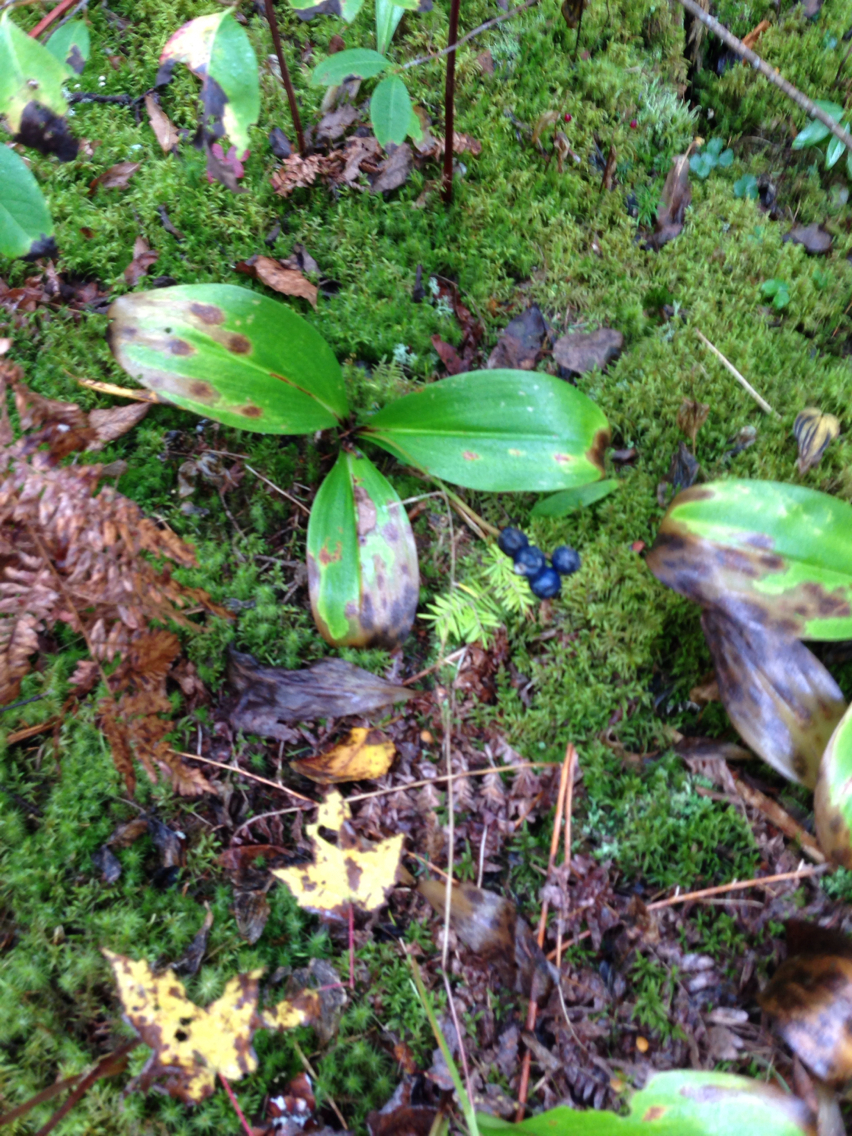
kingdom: Plantae
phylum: Tracheophyta
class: Liliopsida
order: Liliales
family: Liliaceae
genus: Clintonia
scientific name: Clintonia borealis
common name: Yellow clintonia
